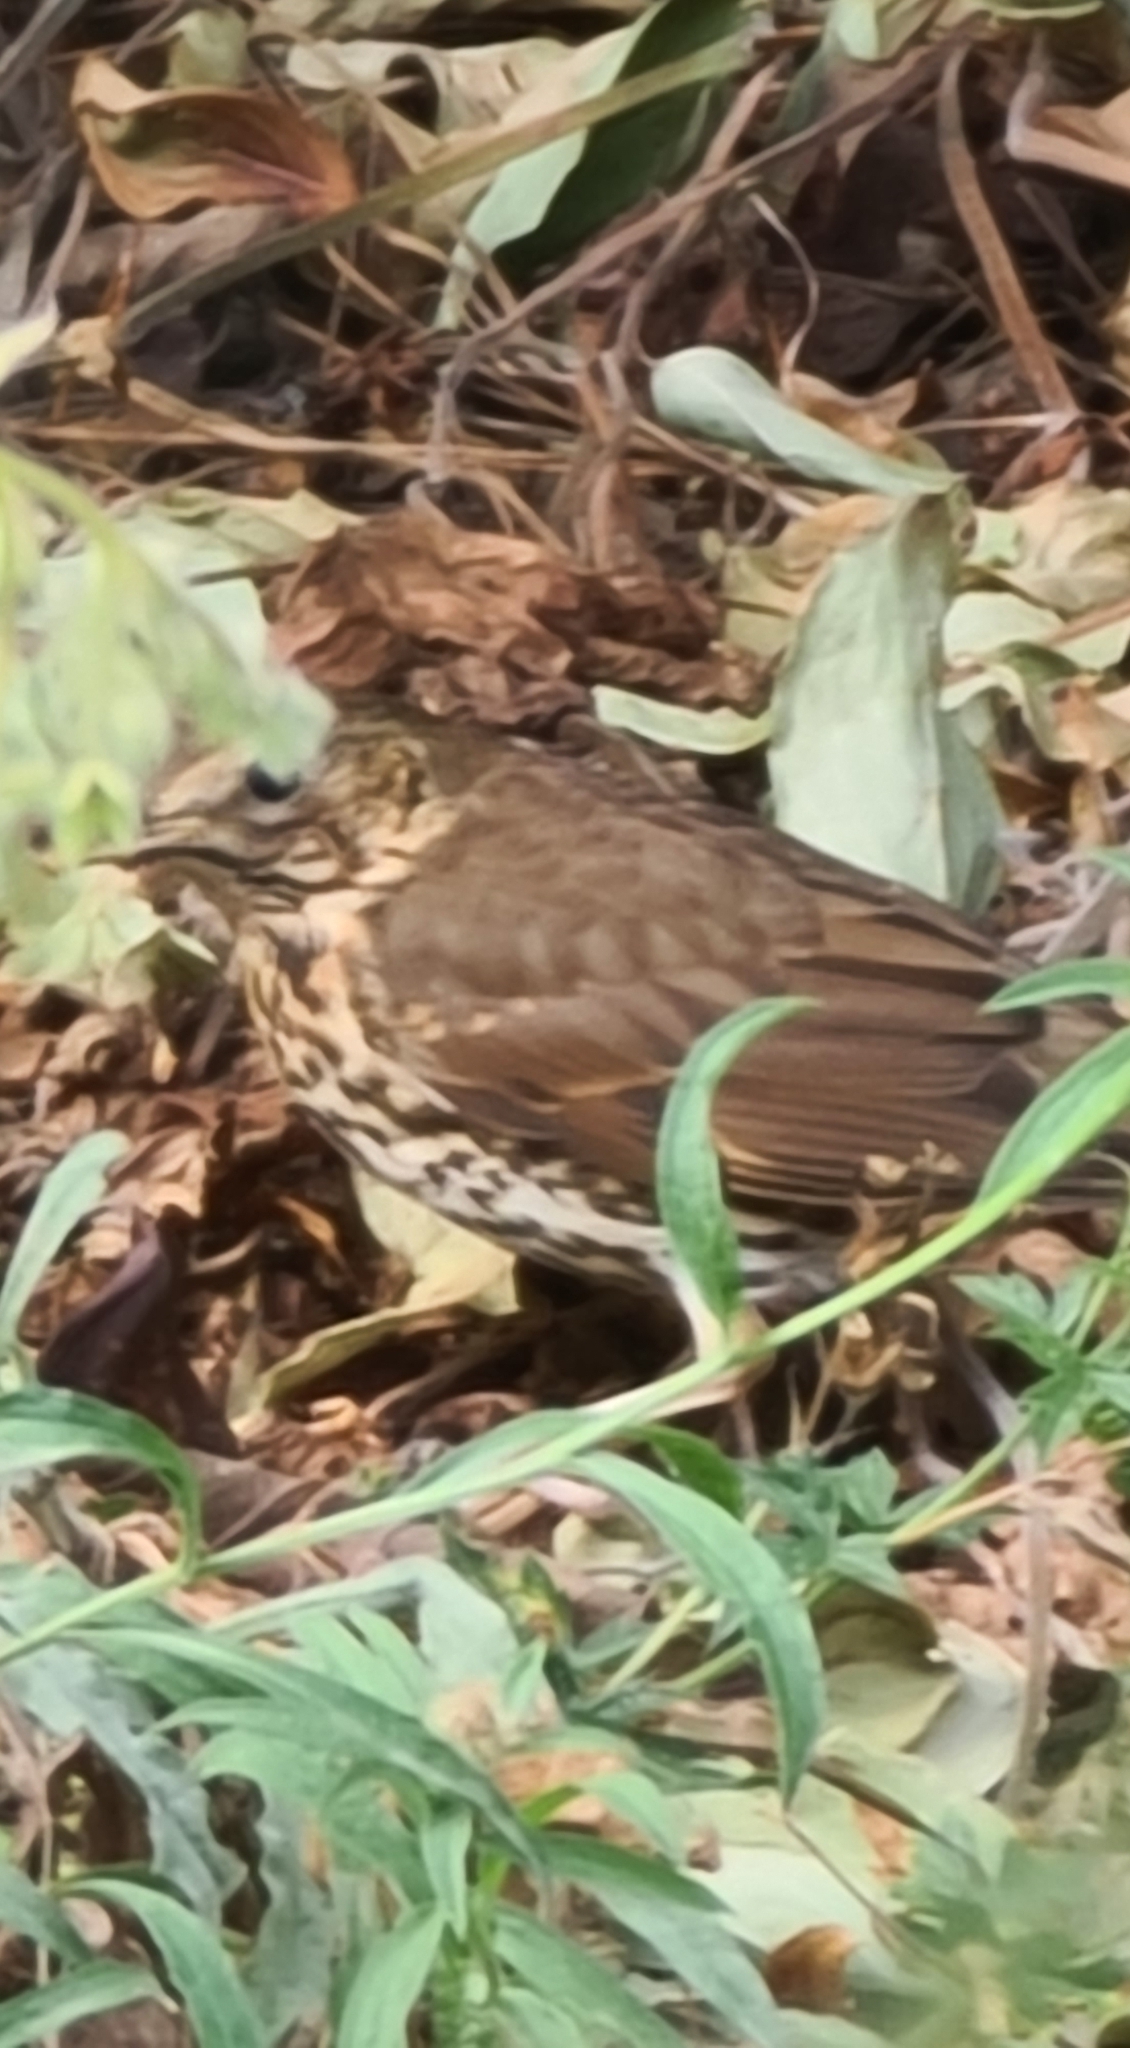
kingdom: Animalia
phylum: Chordata
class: Aves
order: Passeriformes
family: Turdidae
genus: Turdus
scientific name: Turdus philomelos
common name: Song thrush
